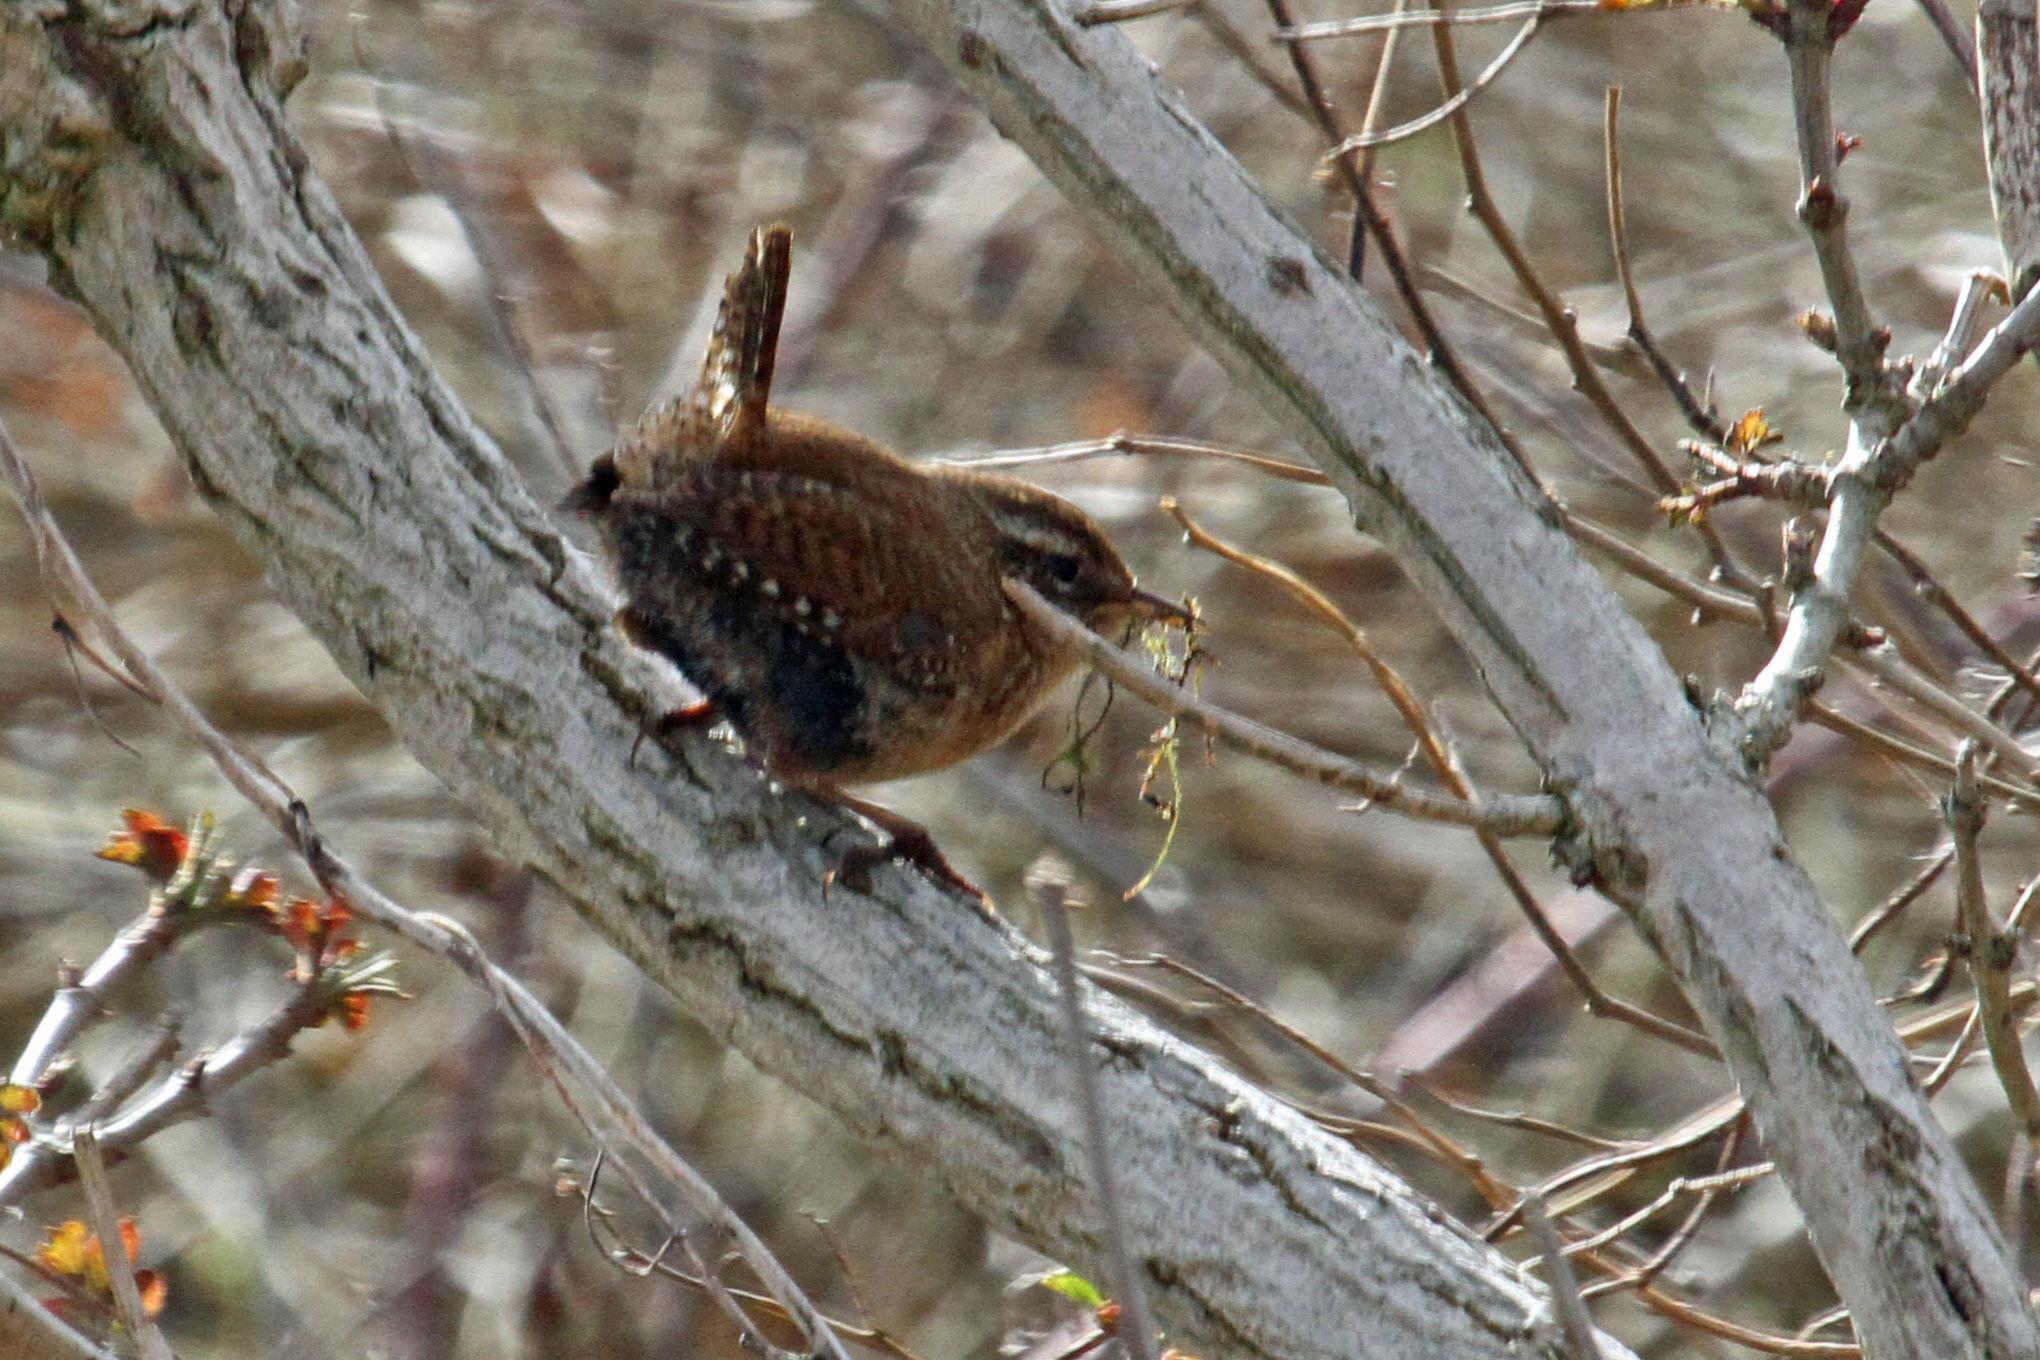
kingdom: Animalia
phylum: Chordata
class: Aves
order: Passeriformes
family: Troglodytidae
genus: Troglodytes
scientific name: Troglodytes troglodytes
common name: Eurasian wren
